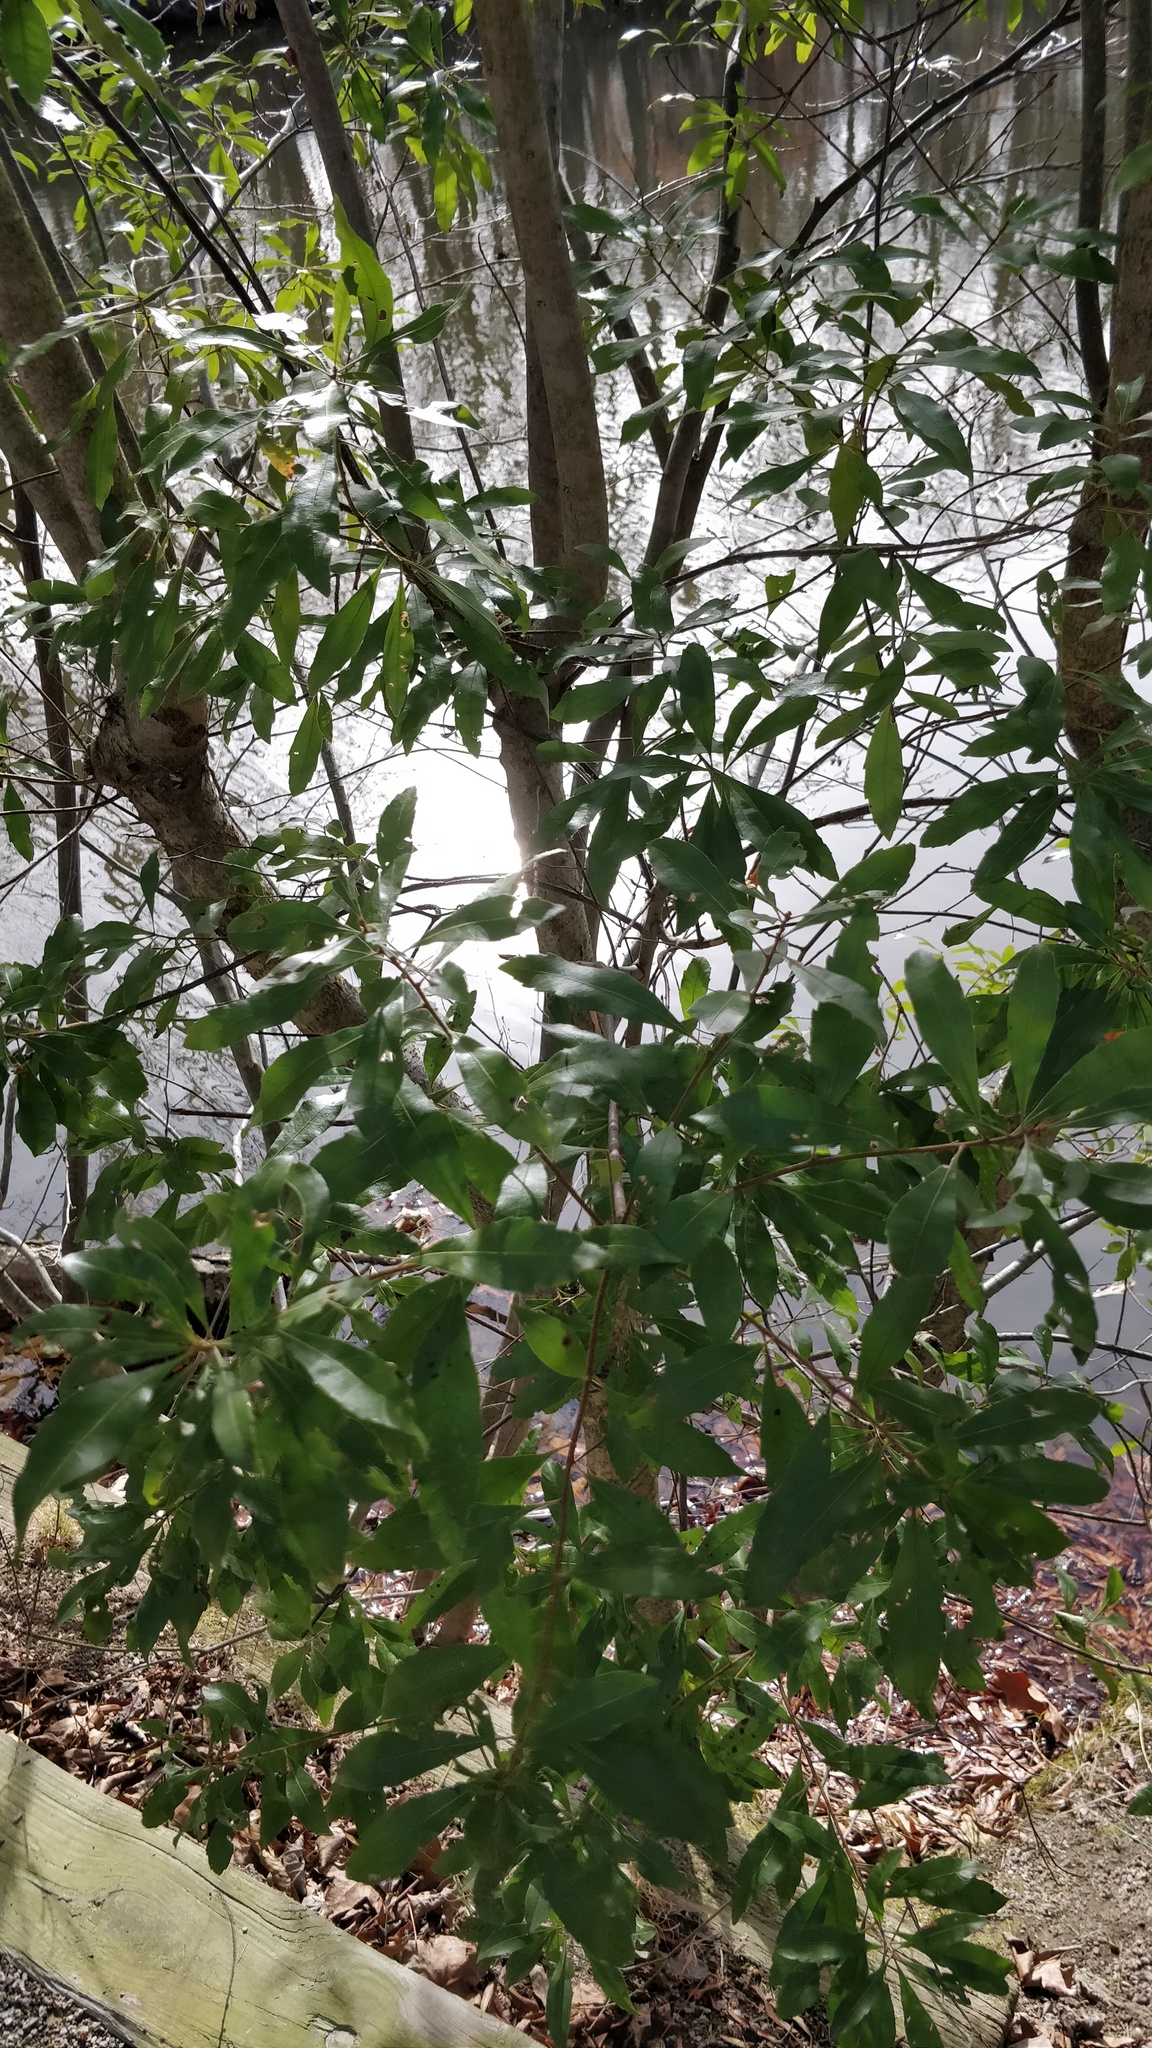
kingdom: Plantae
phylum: Tracheophyta
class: Magnoliopsida
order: Fagales
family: Myricaceae
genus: Morella
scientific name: Morella cerifera
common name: Wax myrtle
